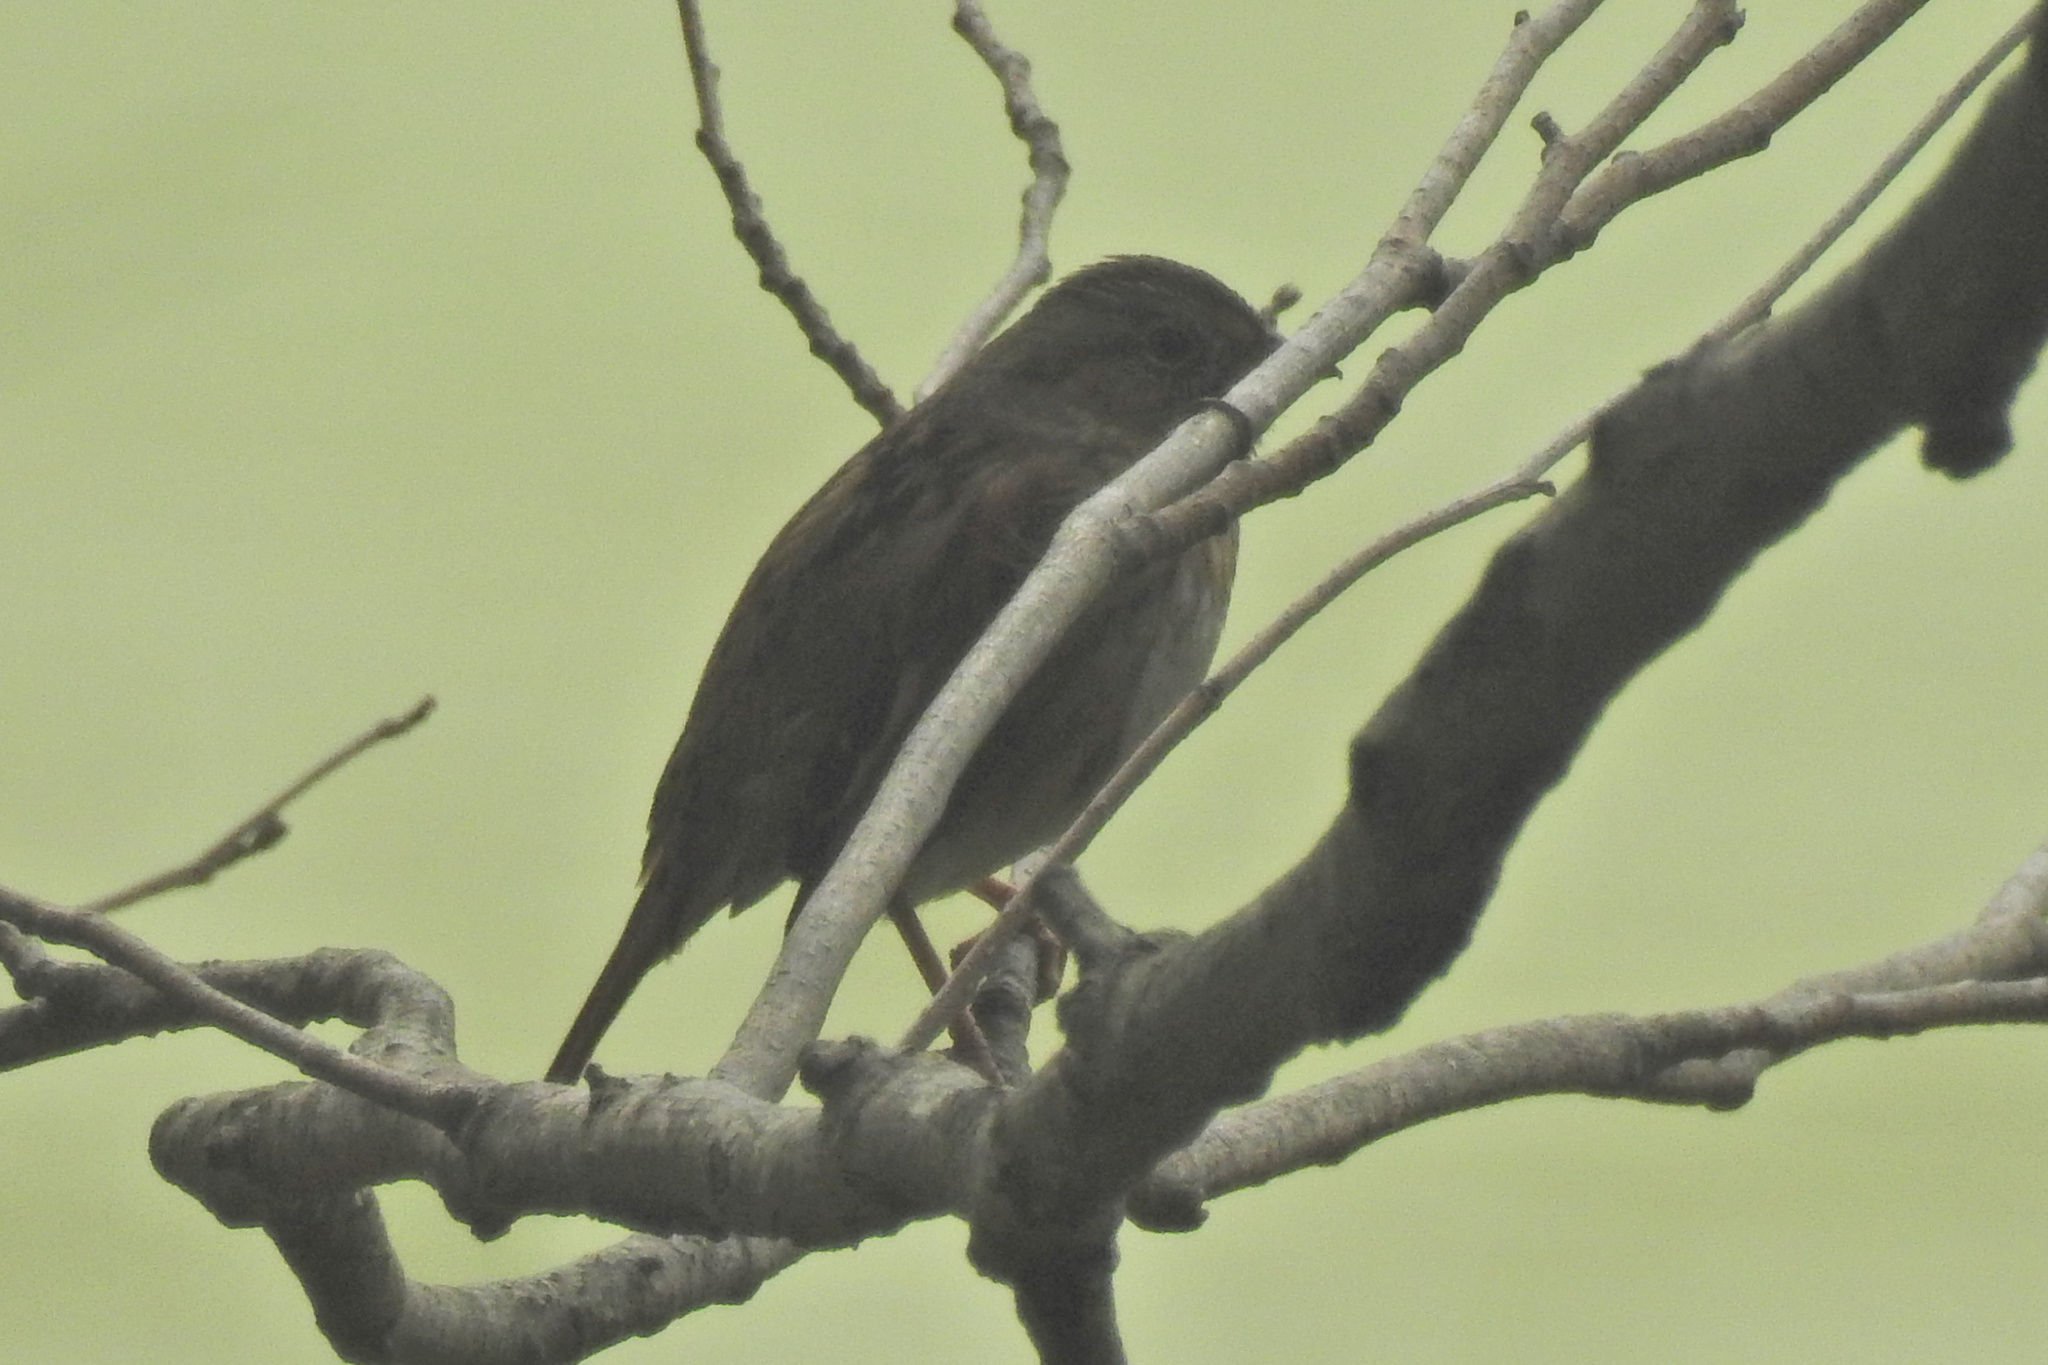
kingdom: Animalia
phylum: Chordata
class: Aves
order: Passeriformes
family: Passerellidae
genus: Melospiza
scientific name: Melospiza melodia
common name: Song sparrow
